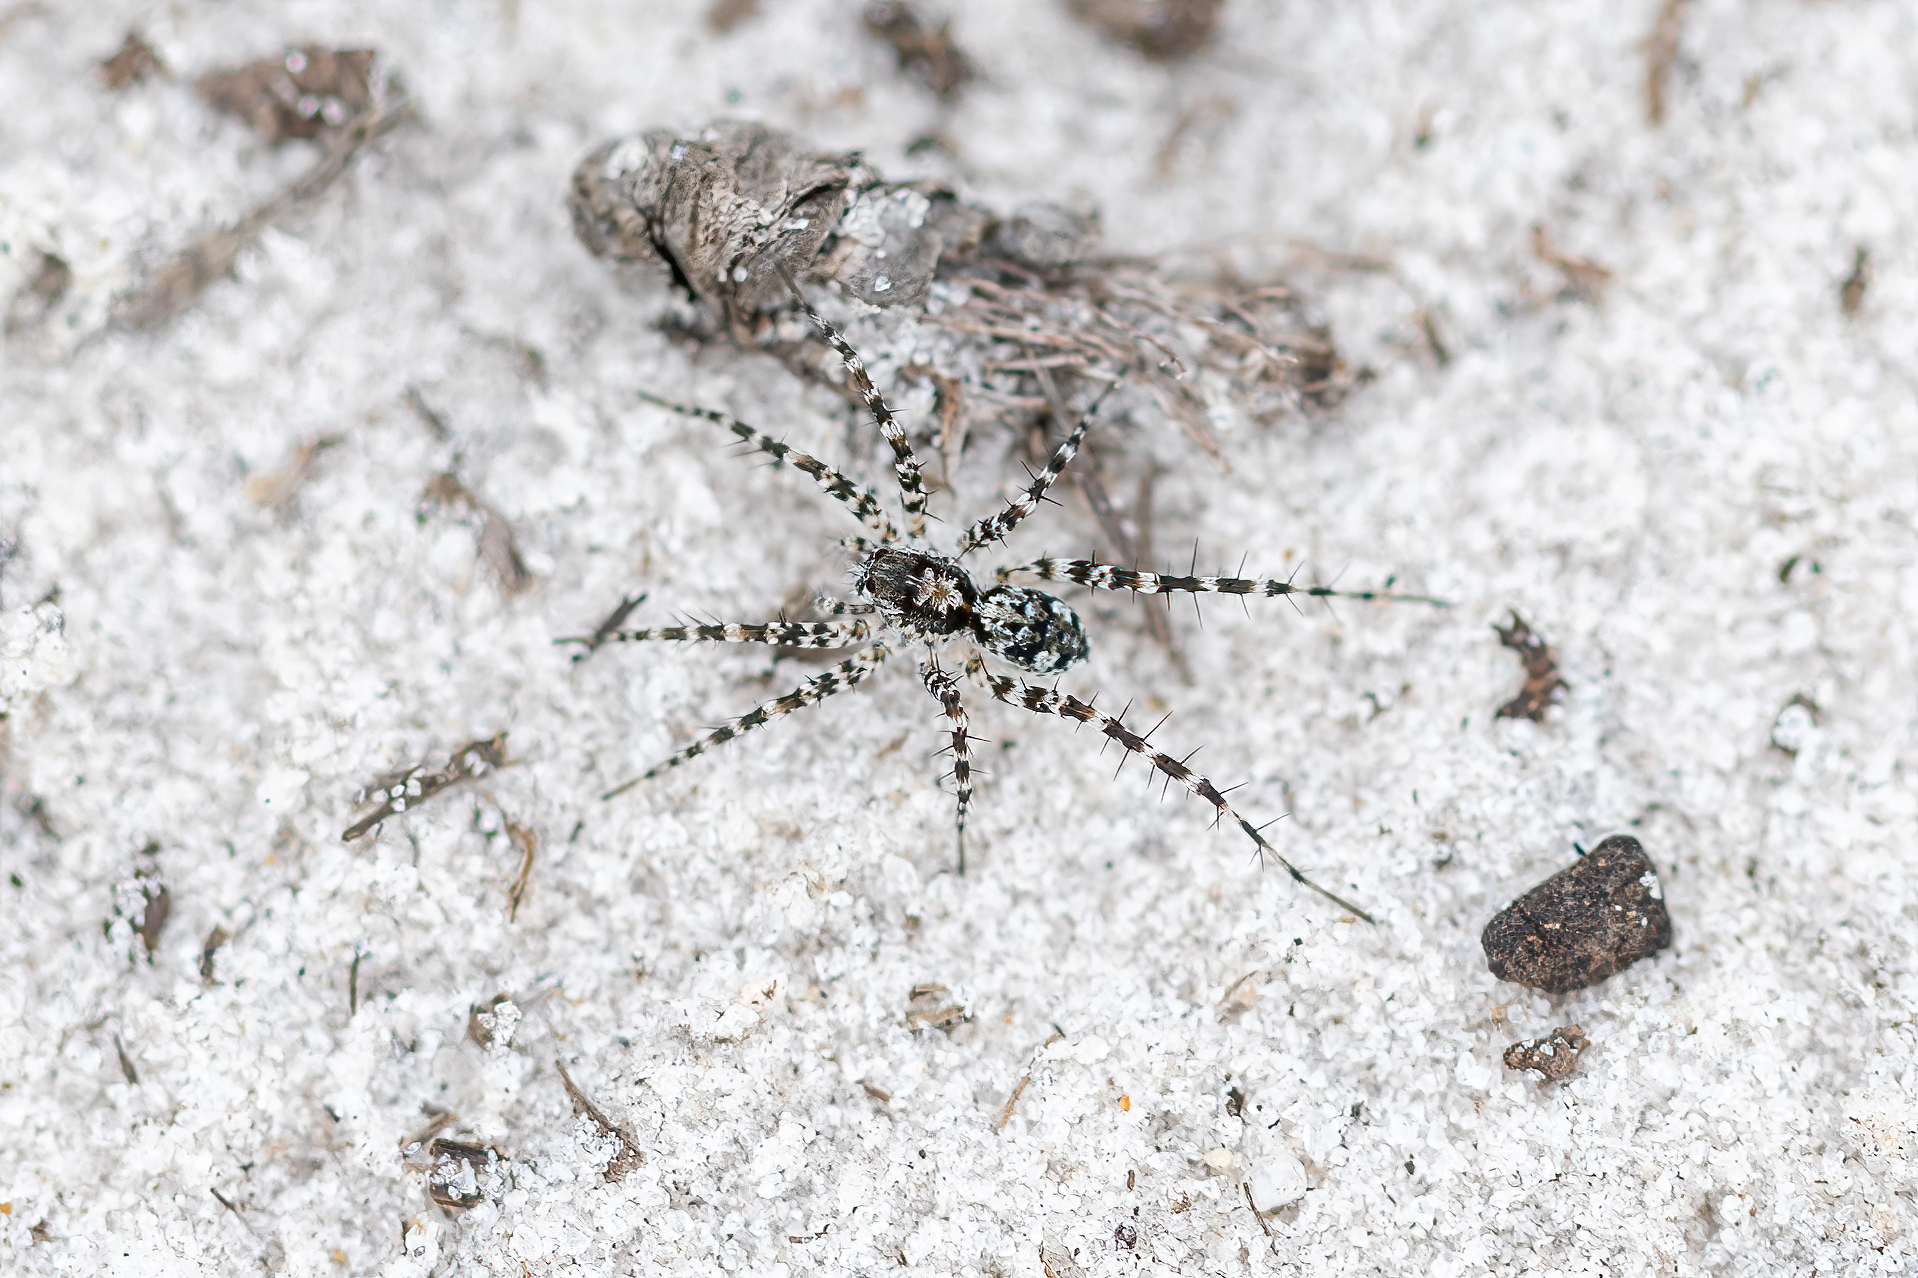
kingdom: Animalia
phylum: Arthropoda
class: Arachnida
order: Araneae
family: Lycosidae
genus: Pardosa
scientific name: Pardosa lapidicina
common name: Stone spider
